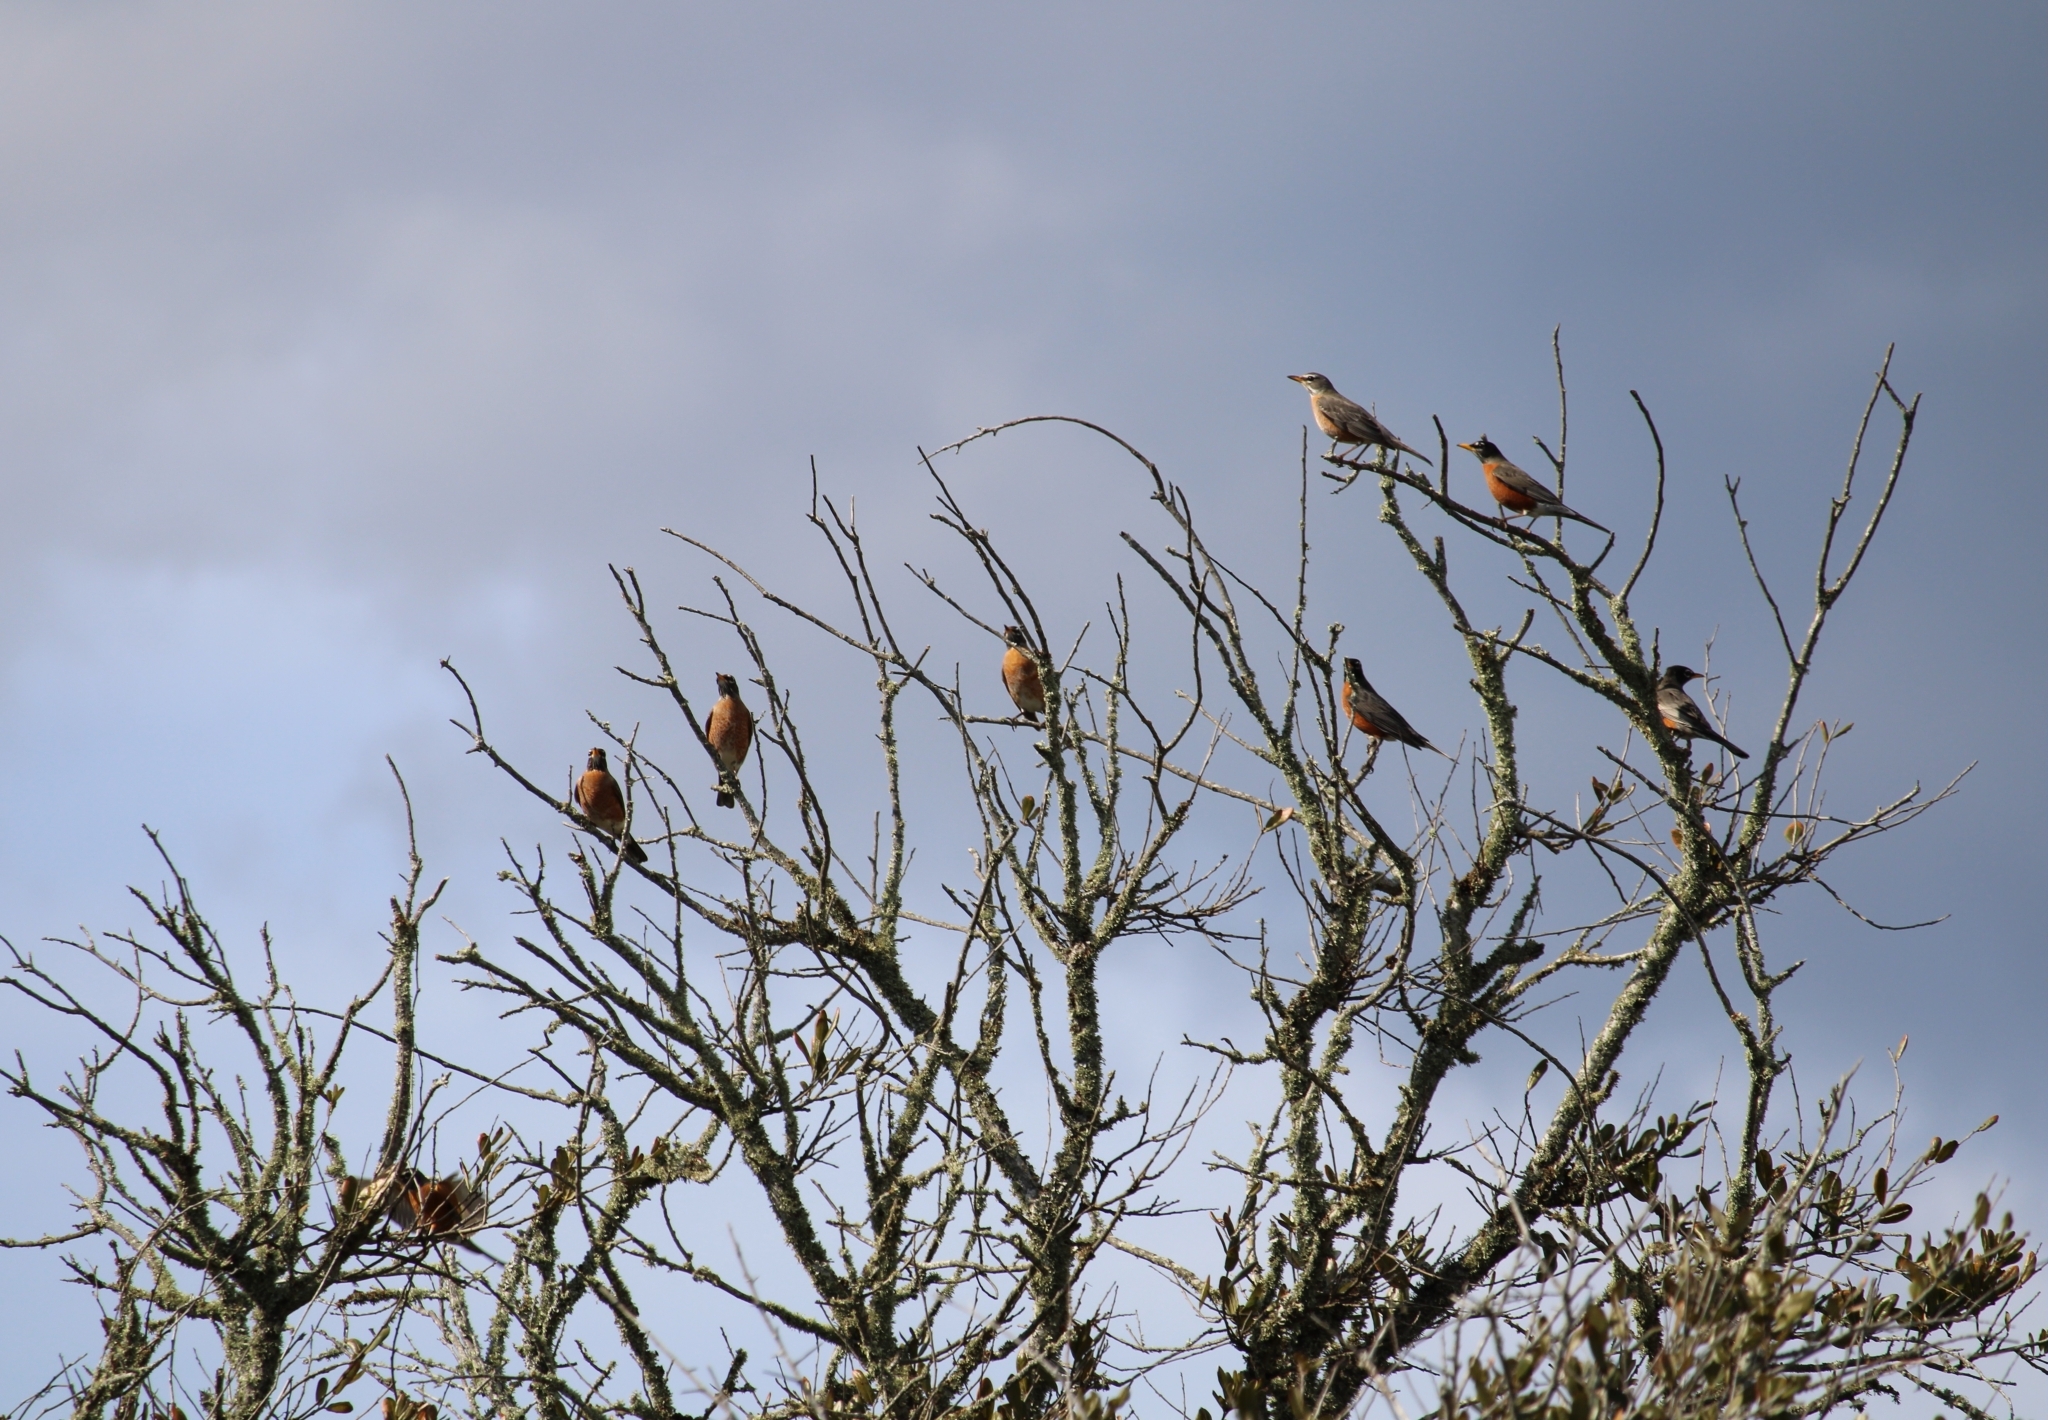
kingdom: Animalia
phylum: Chordata
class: Aves
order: Passeriformes
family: Turdidae
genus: Turdus
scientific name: Turdus migratorius
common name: American robin
